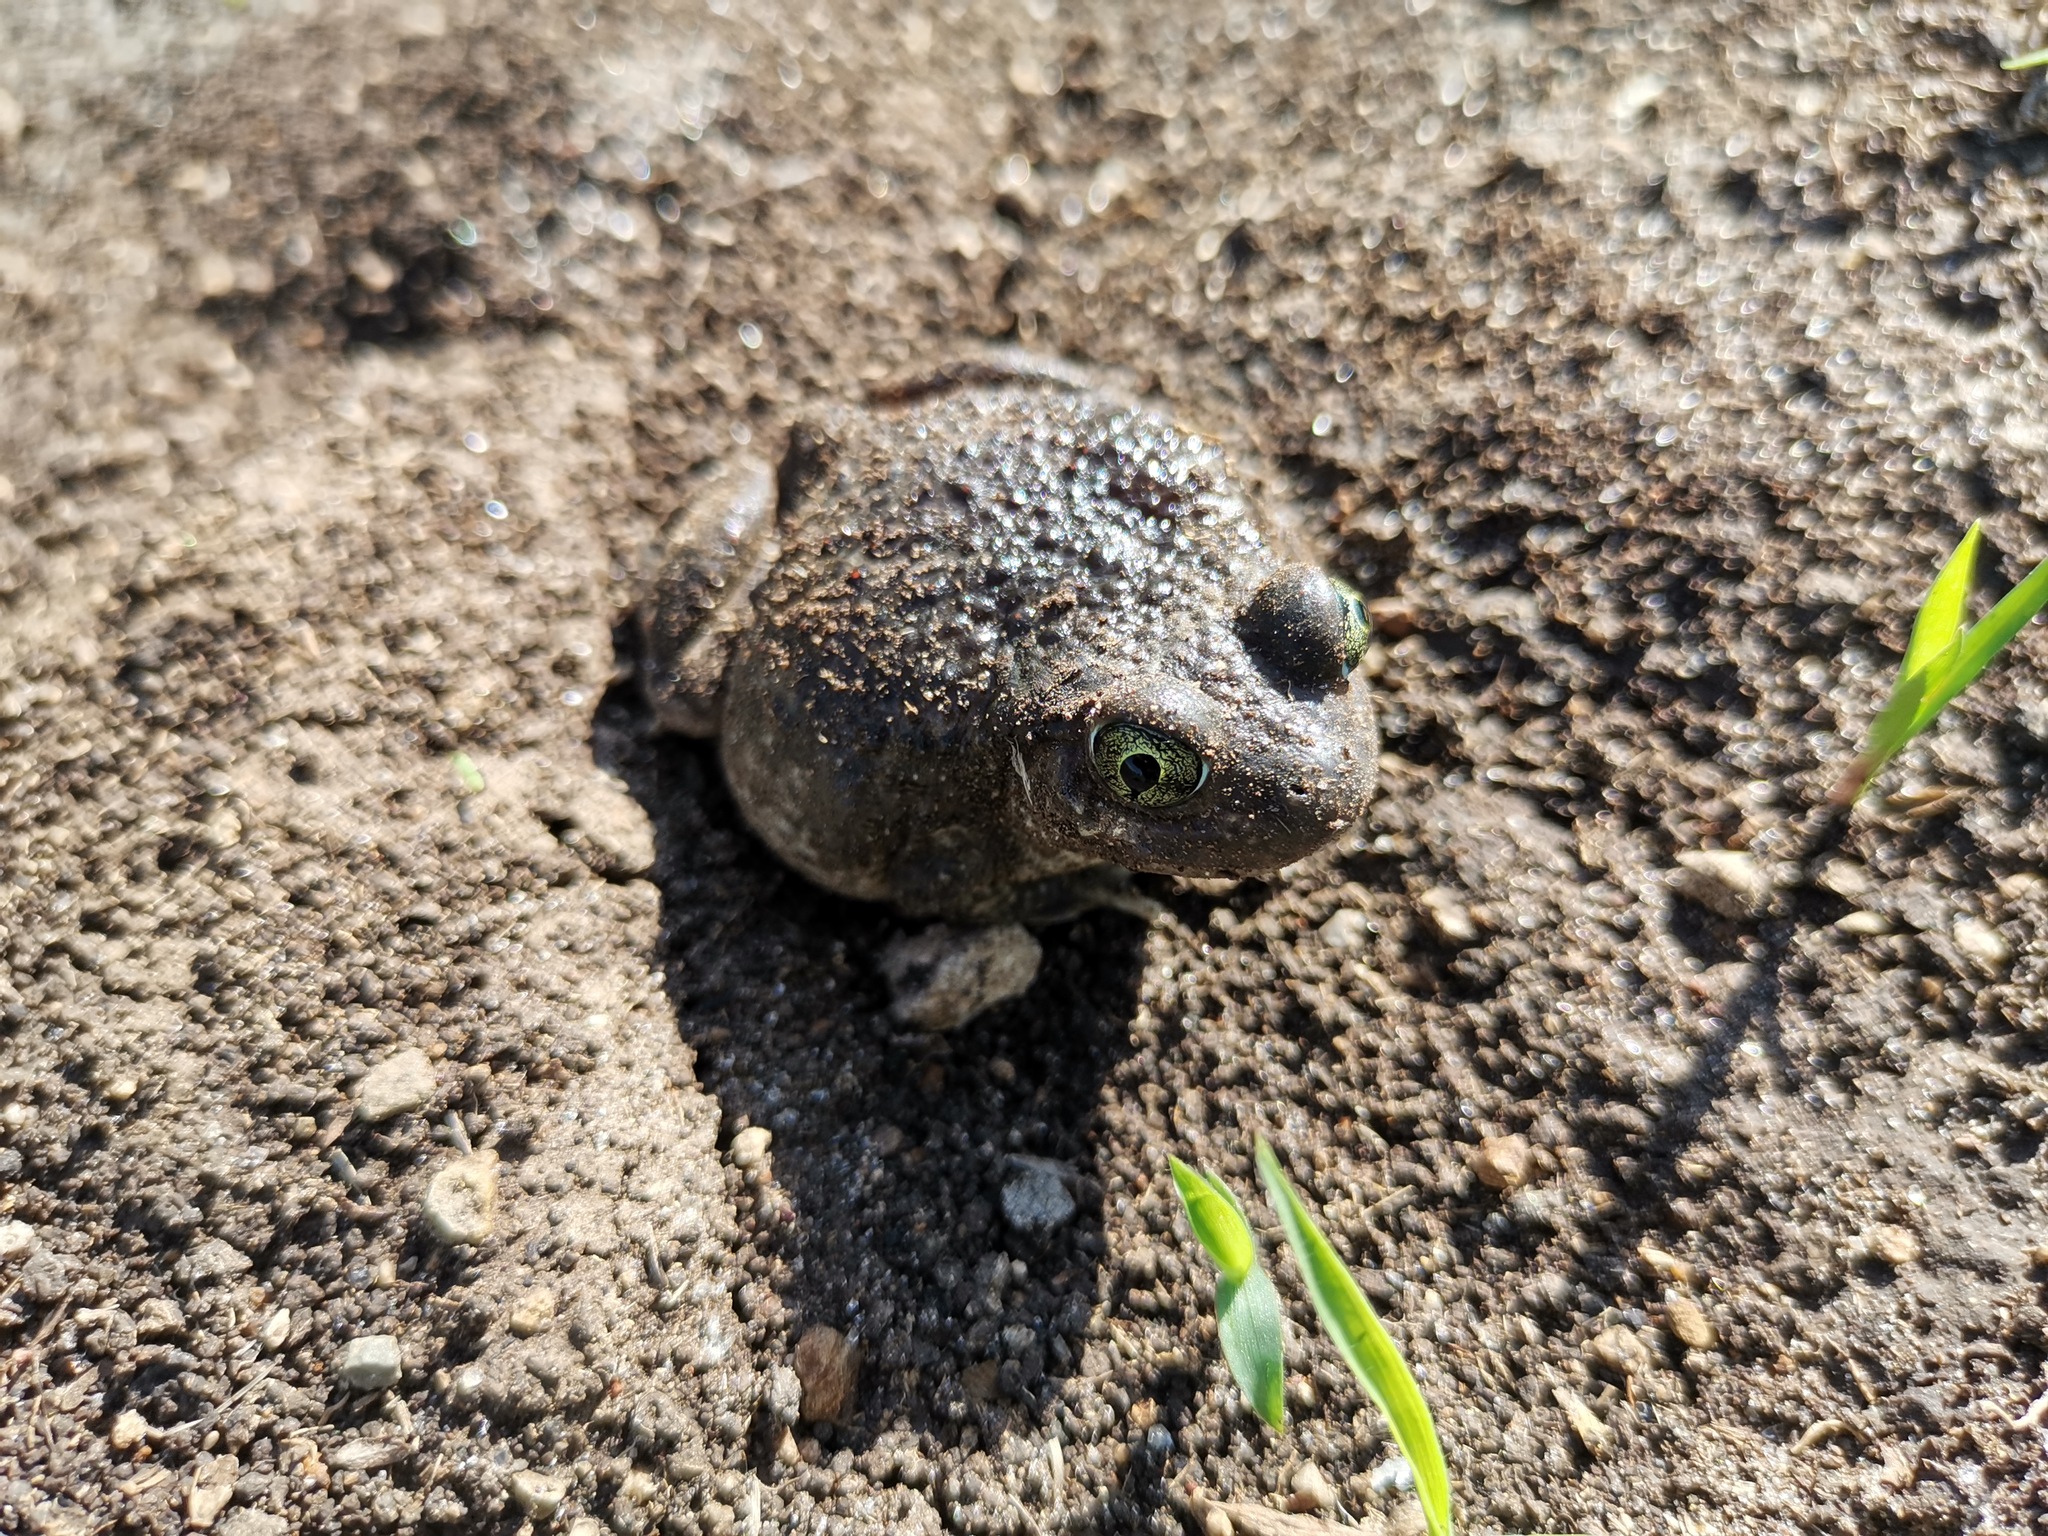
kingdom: Animalia
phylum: Chordata
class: Amphibia
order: Anura
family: Scaphiopodidae
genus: Spea
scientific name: Spea multiplicata
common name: Mexican spadefoot
